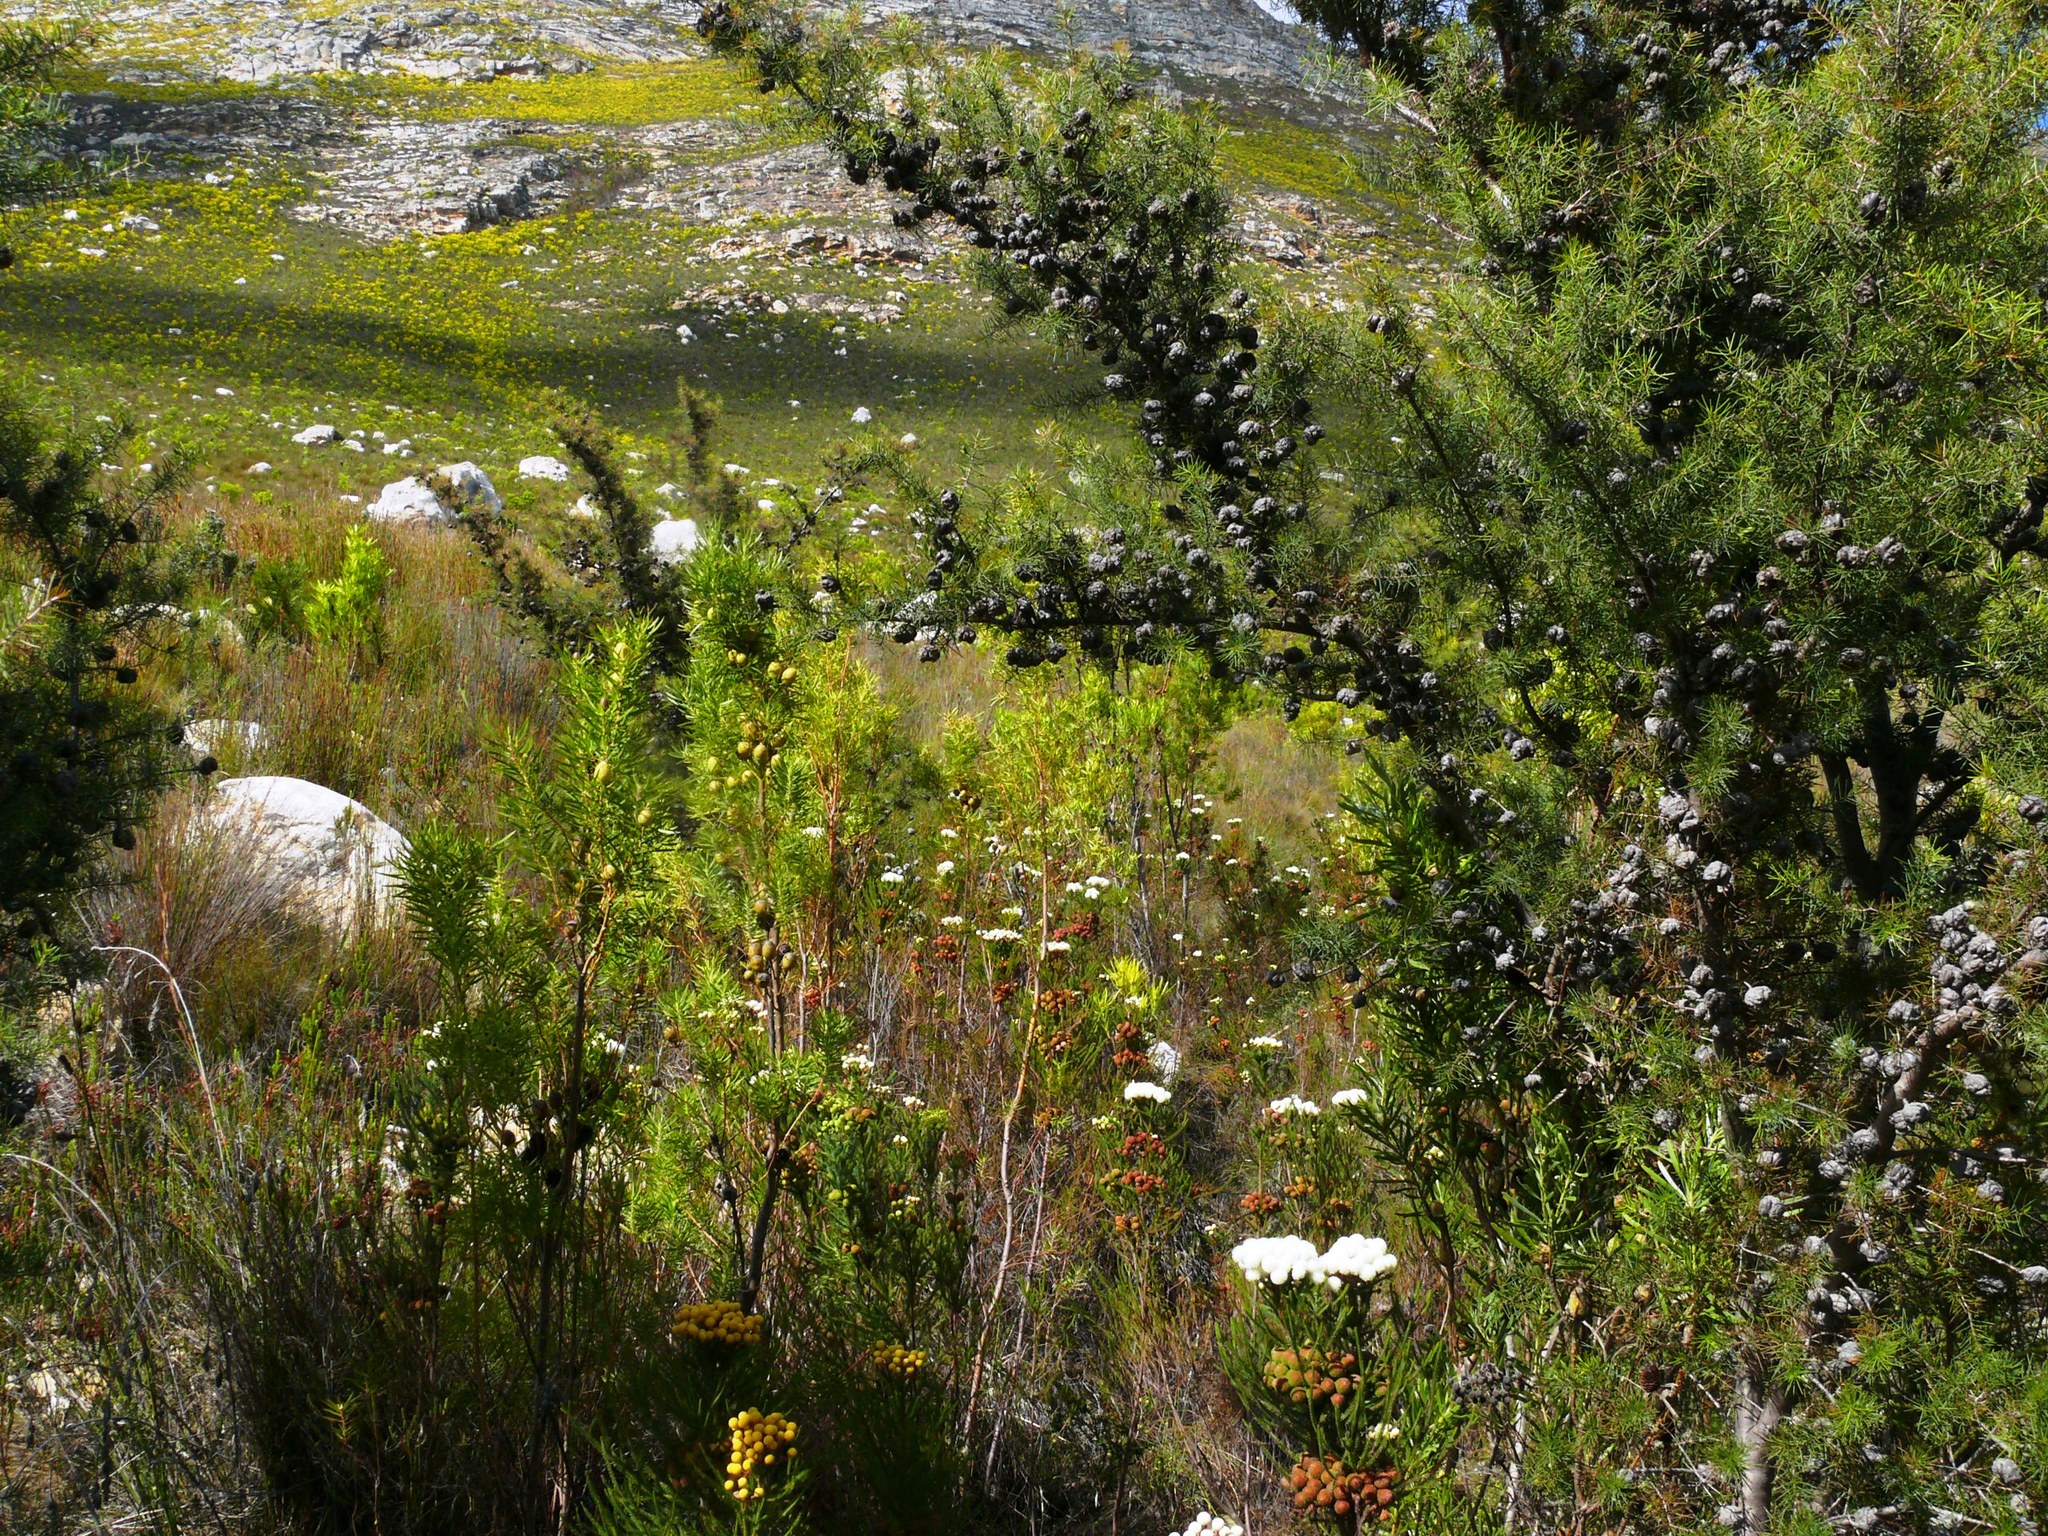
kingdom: Plantae
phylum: Tracheophyta
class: Magnoliopsida
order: Proteales
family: Proteaceae
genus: Hakea
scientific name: Hakea sericea
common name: Needle bush
